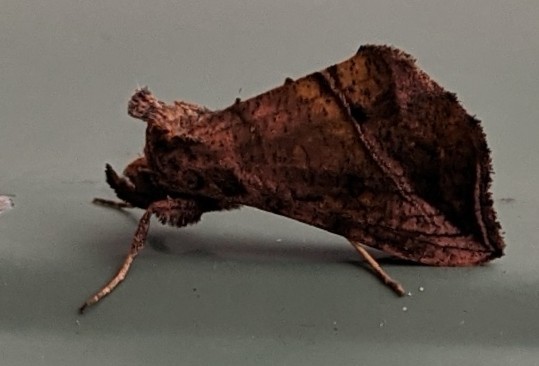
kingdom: Animalia
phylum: Arthropoda
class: Insecta
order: Lepidoptera
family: Noctuidae
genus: Pseudeva
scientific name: Pseudeva purpurigera
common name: Straight-lined looper moth
